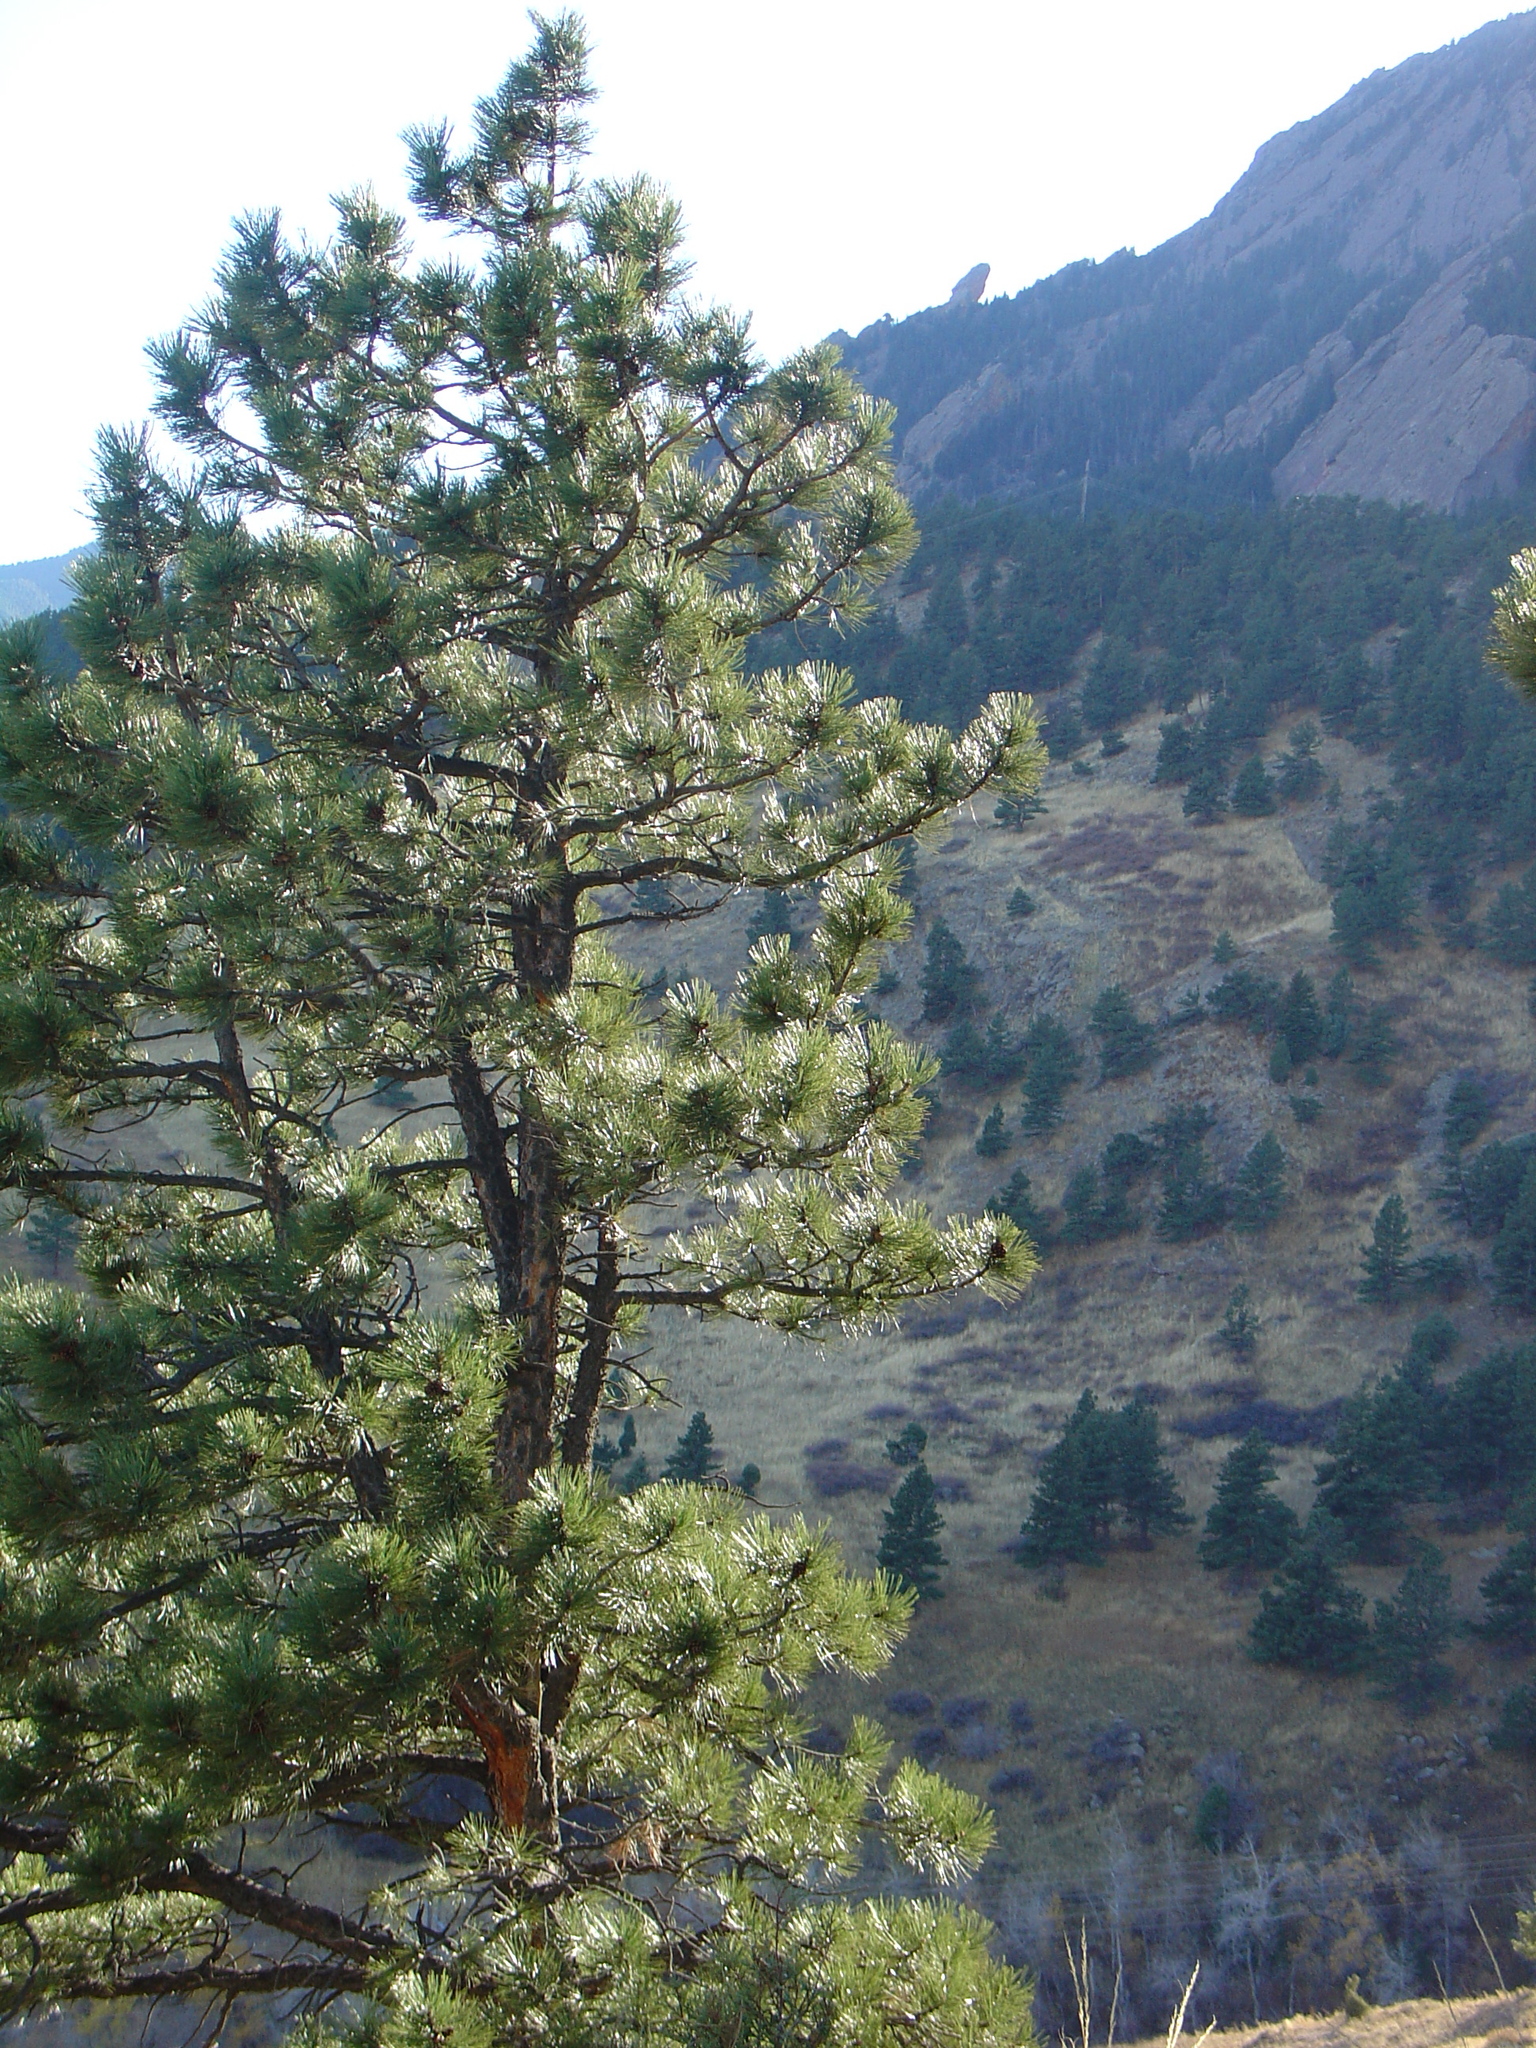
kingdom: Plantae
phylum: Tracheophyta
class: Pinopsida
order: Pinales
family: Pinaceae
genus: Pinus
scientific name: Pinus ponderosa
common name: Western yellow-pine
